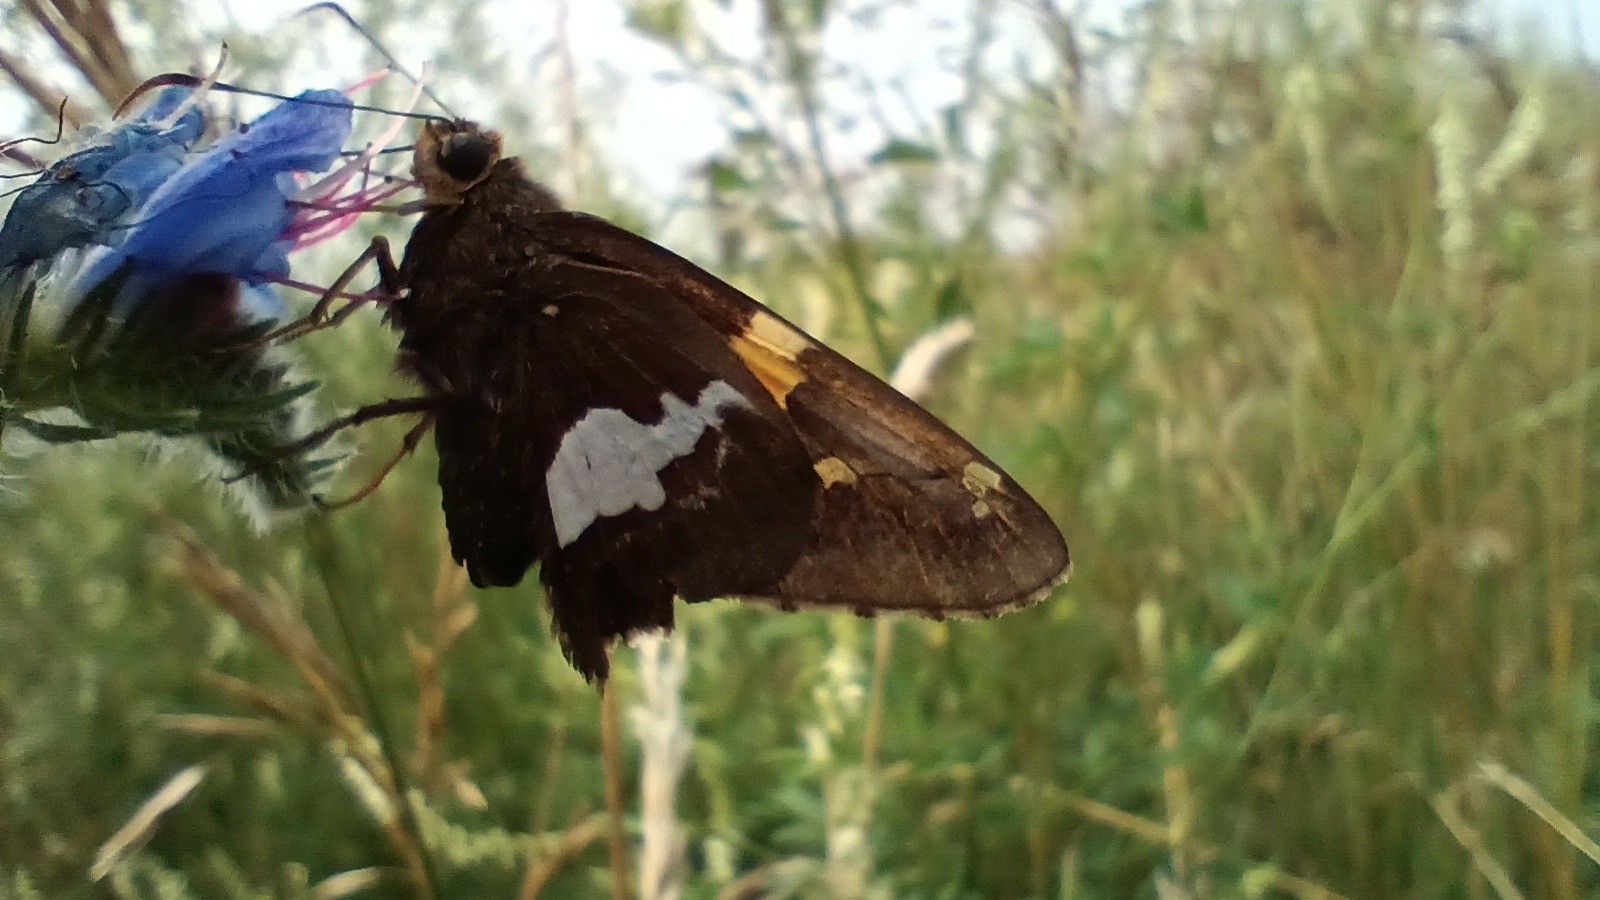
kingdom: Animalia
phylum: Arthropoda
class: Insecta
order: Lepidoptera
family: Hesperiidae
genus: Epargyreus
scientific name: Epargyreus clarus
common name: Silver-spotted skipper
